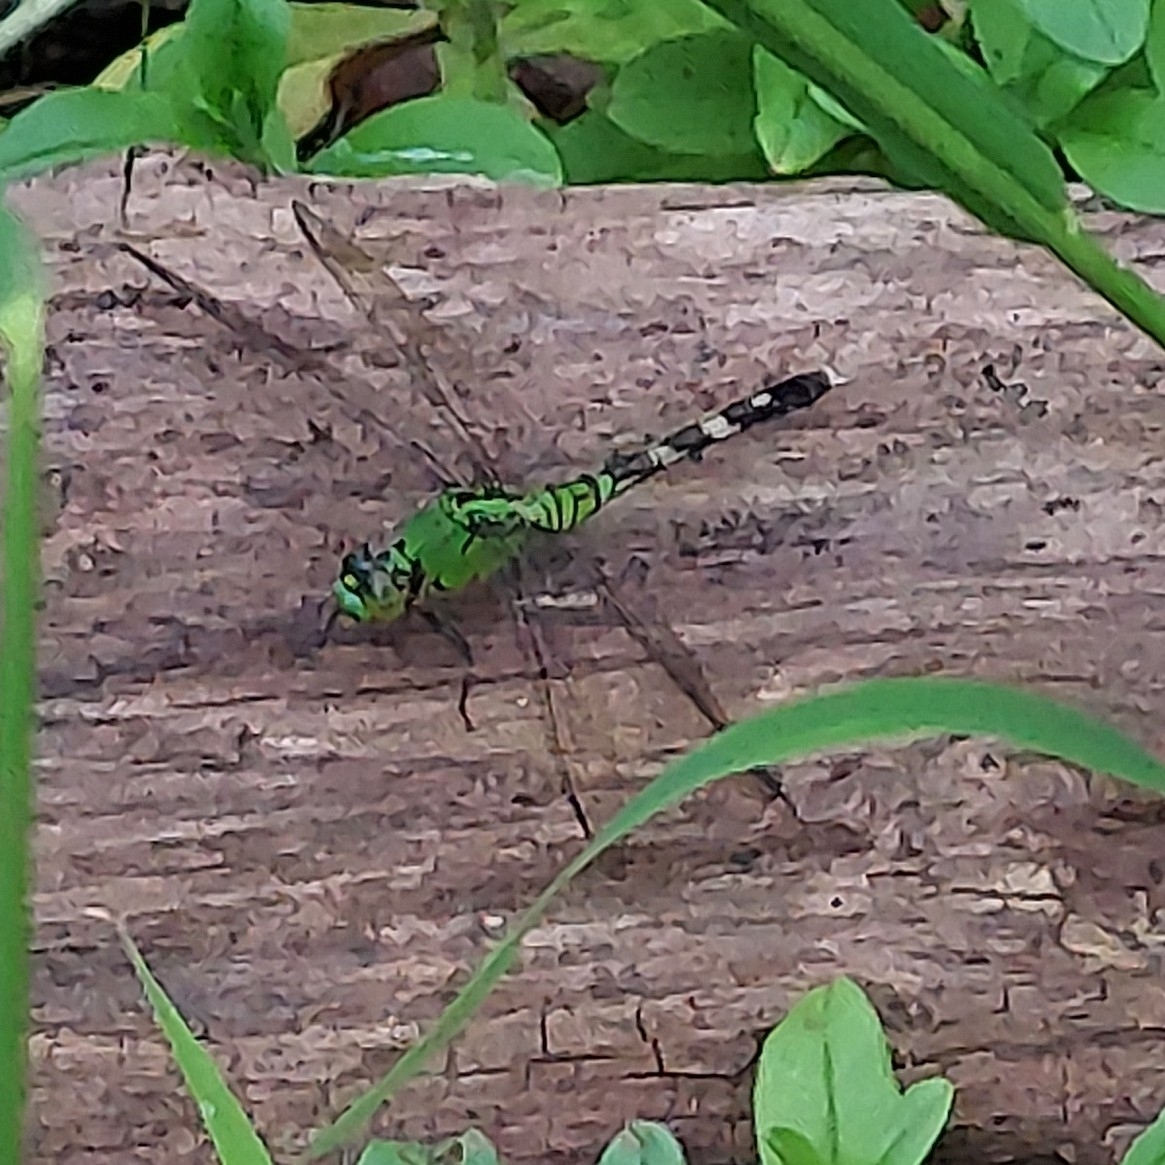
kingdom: Animalia
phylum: Arthropoda
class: Insecta
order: Odonata
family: Libellulidae
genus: Erythemis
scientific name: Erythemis simplicicollis
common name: Eastern pondhawk
